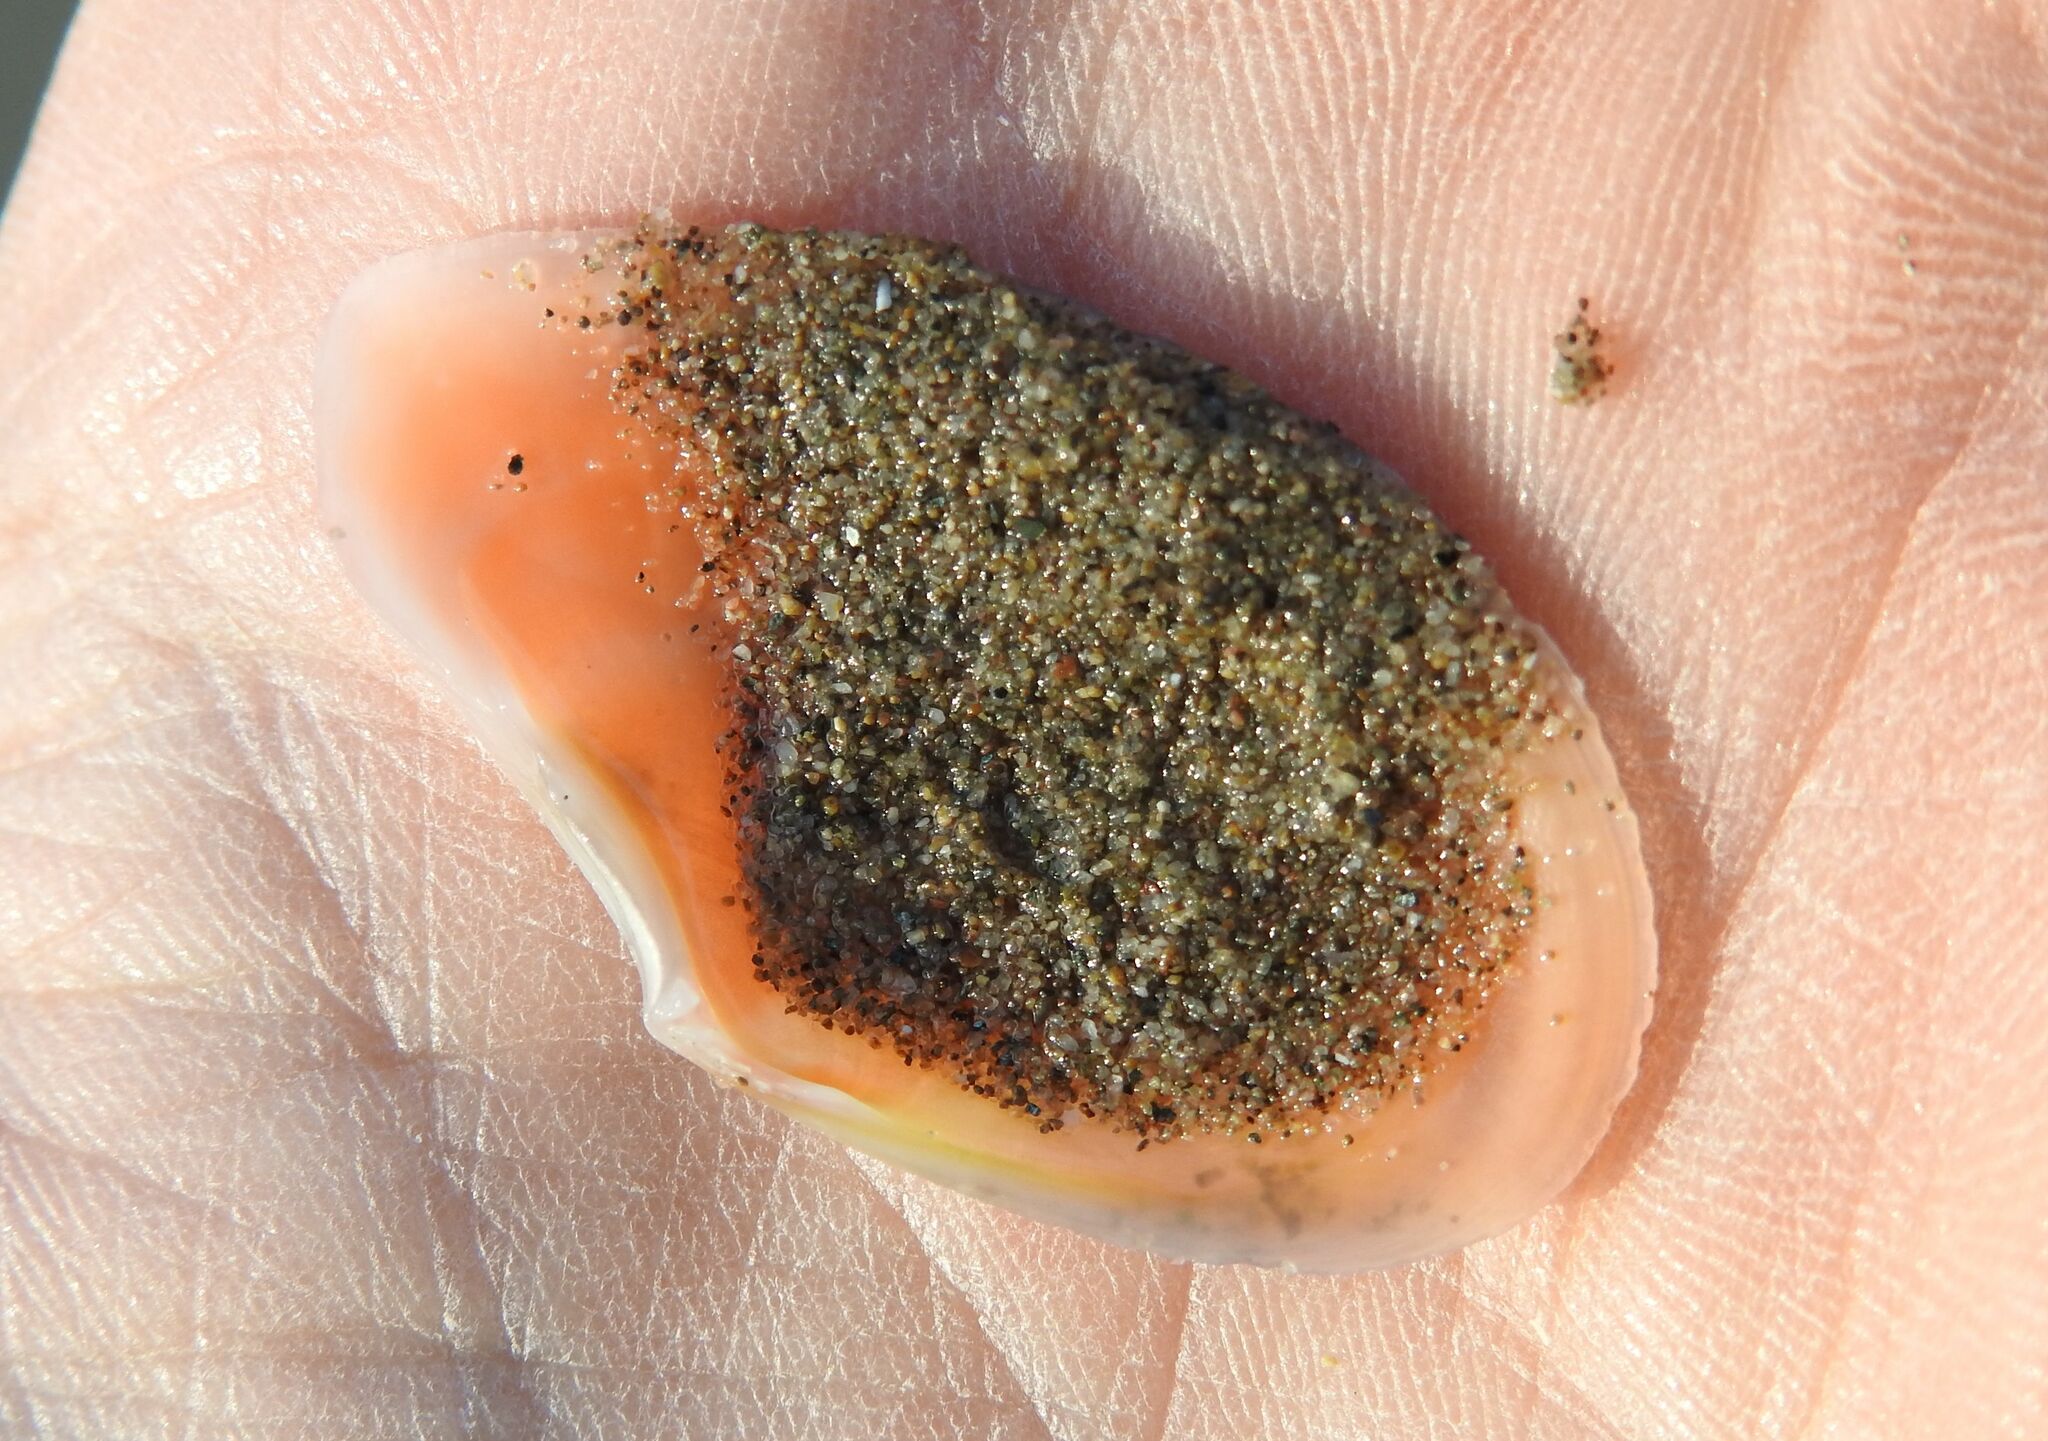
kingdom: Animalia
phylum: Mollusca
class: Bivalvia
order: Cardiida
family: Tellinidae
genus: Bosemprella
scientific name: Bosemprella incarnata
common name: Red tellin
